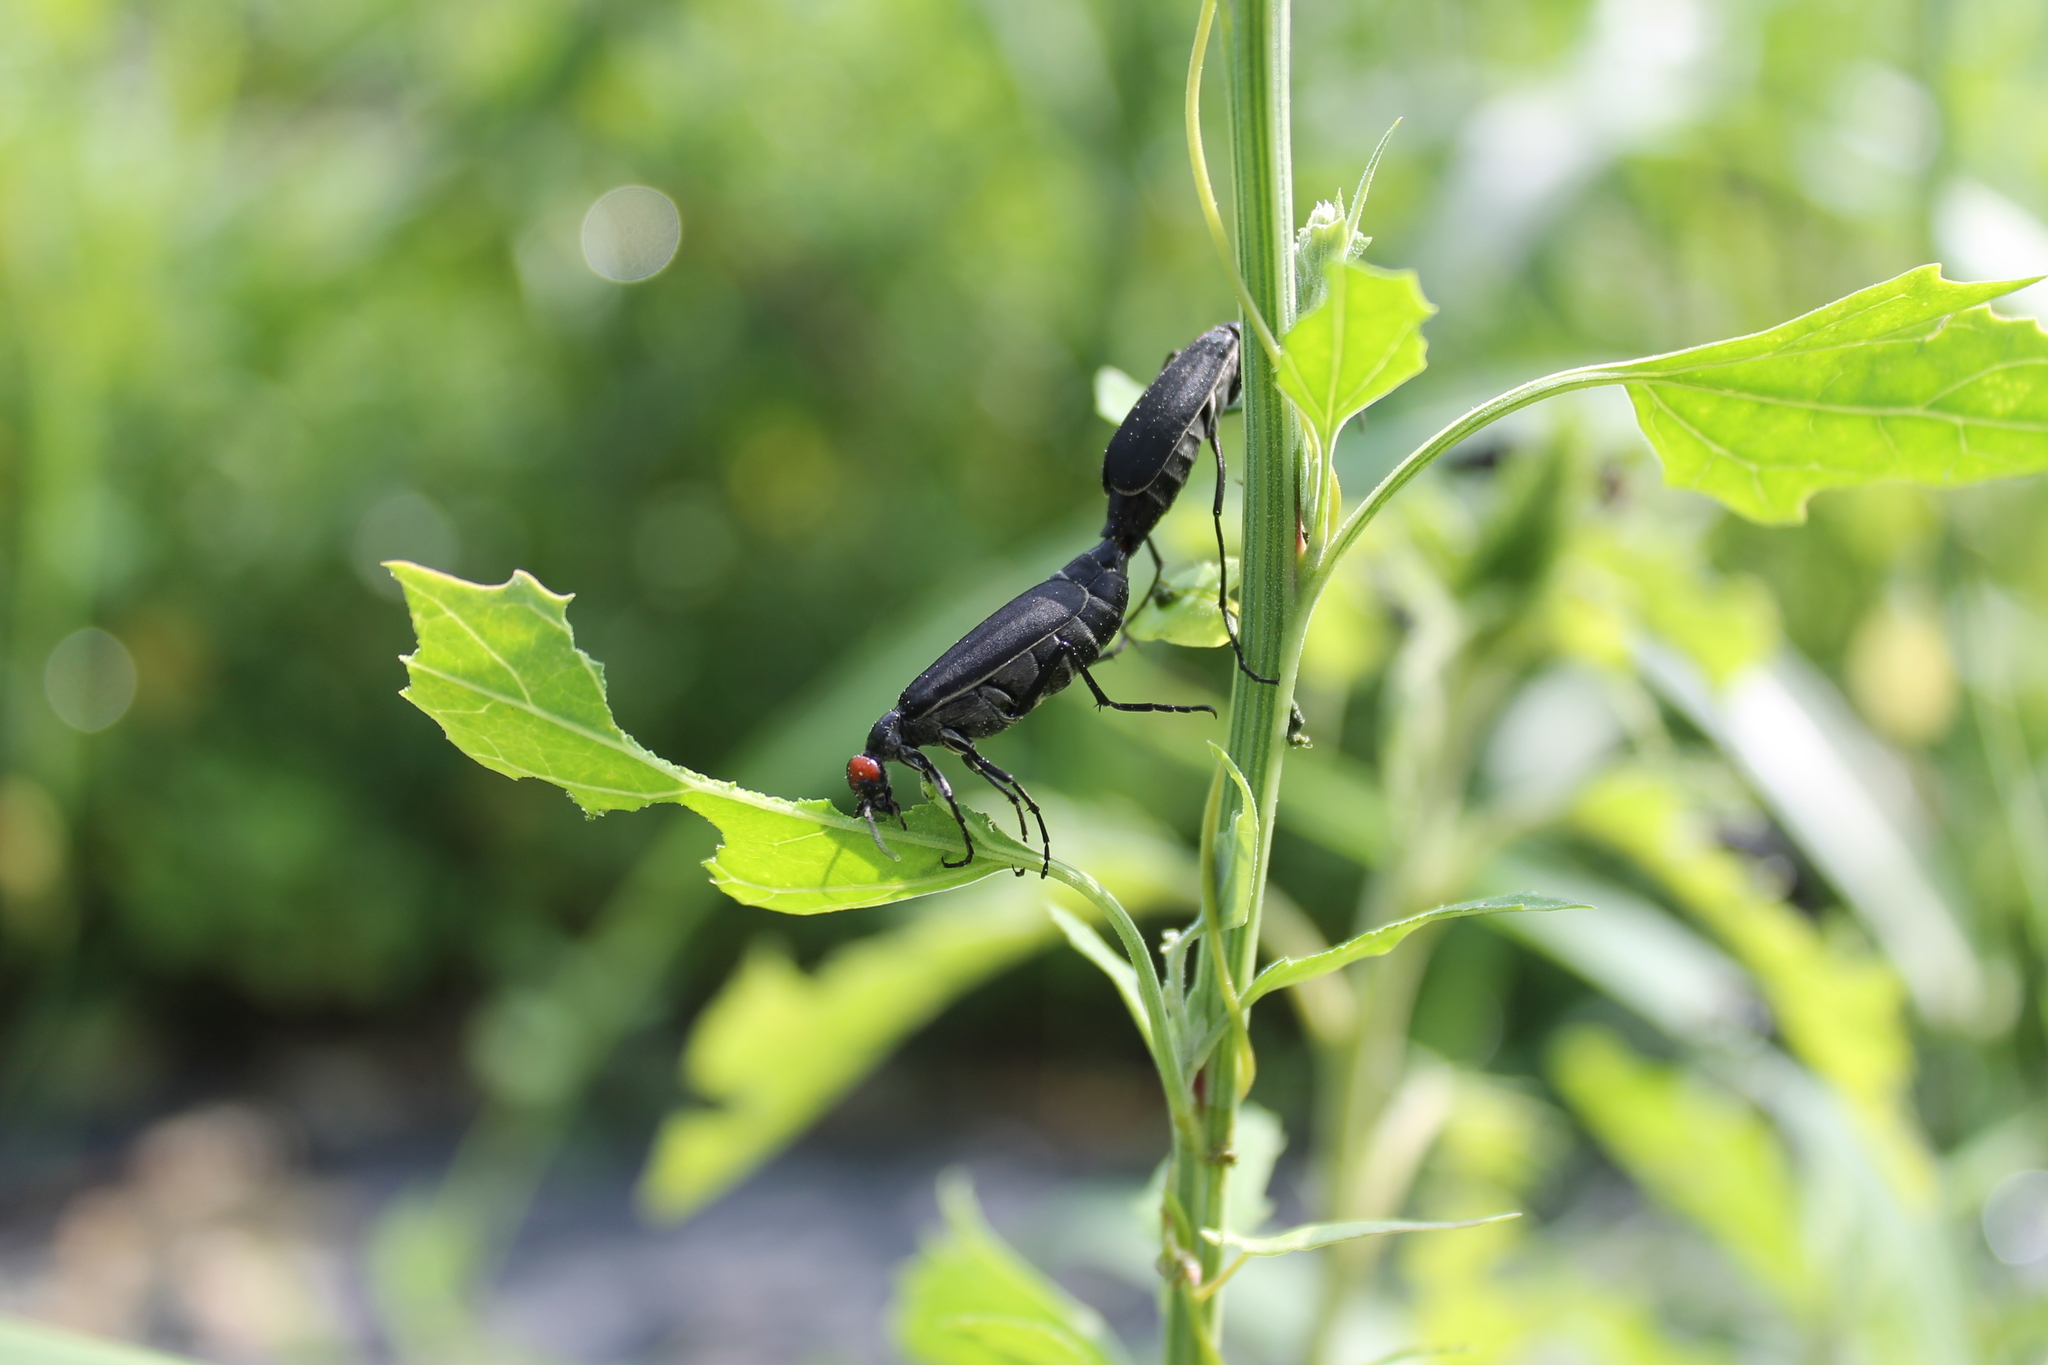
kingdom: Animalia
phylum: Arthropoda
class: Insecta
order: Coleoptera
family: Meloidae
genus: Epicauta
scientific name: Epicauta rufidorsum
